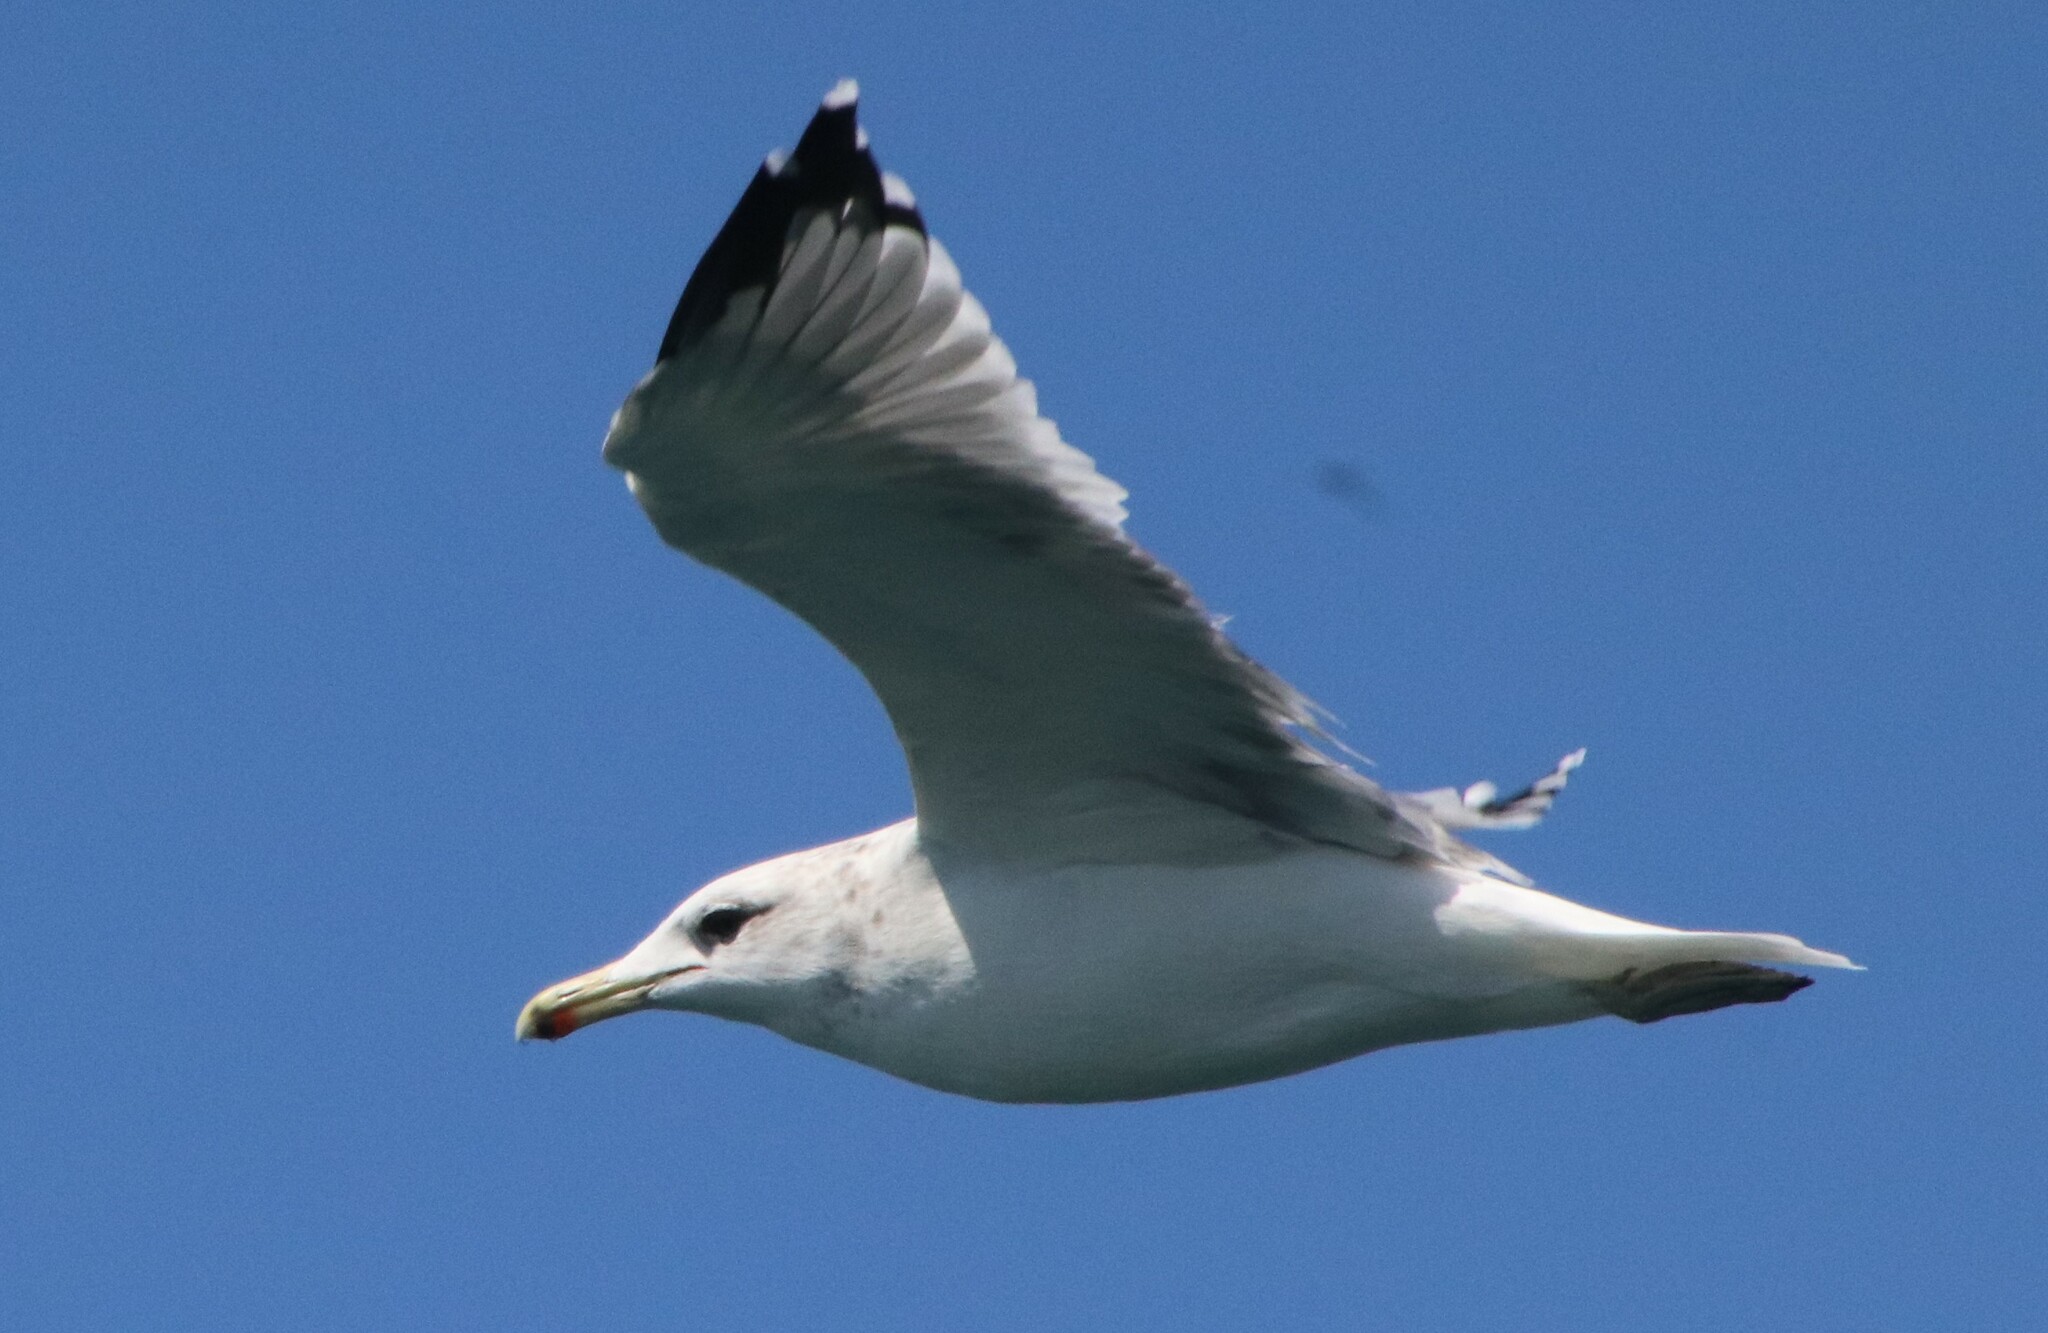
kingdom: Animalia
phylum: Chordata
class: Aves
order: Charadriiformes
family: Laridae
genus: Larus
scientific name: Larus californicus
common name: California gull
